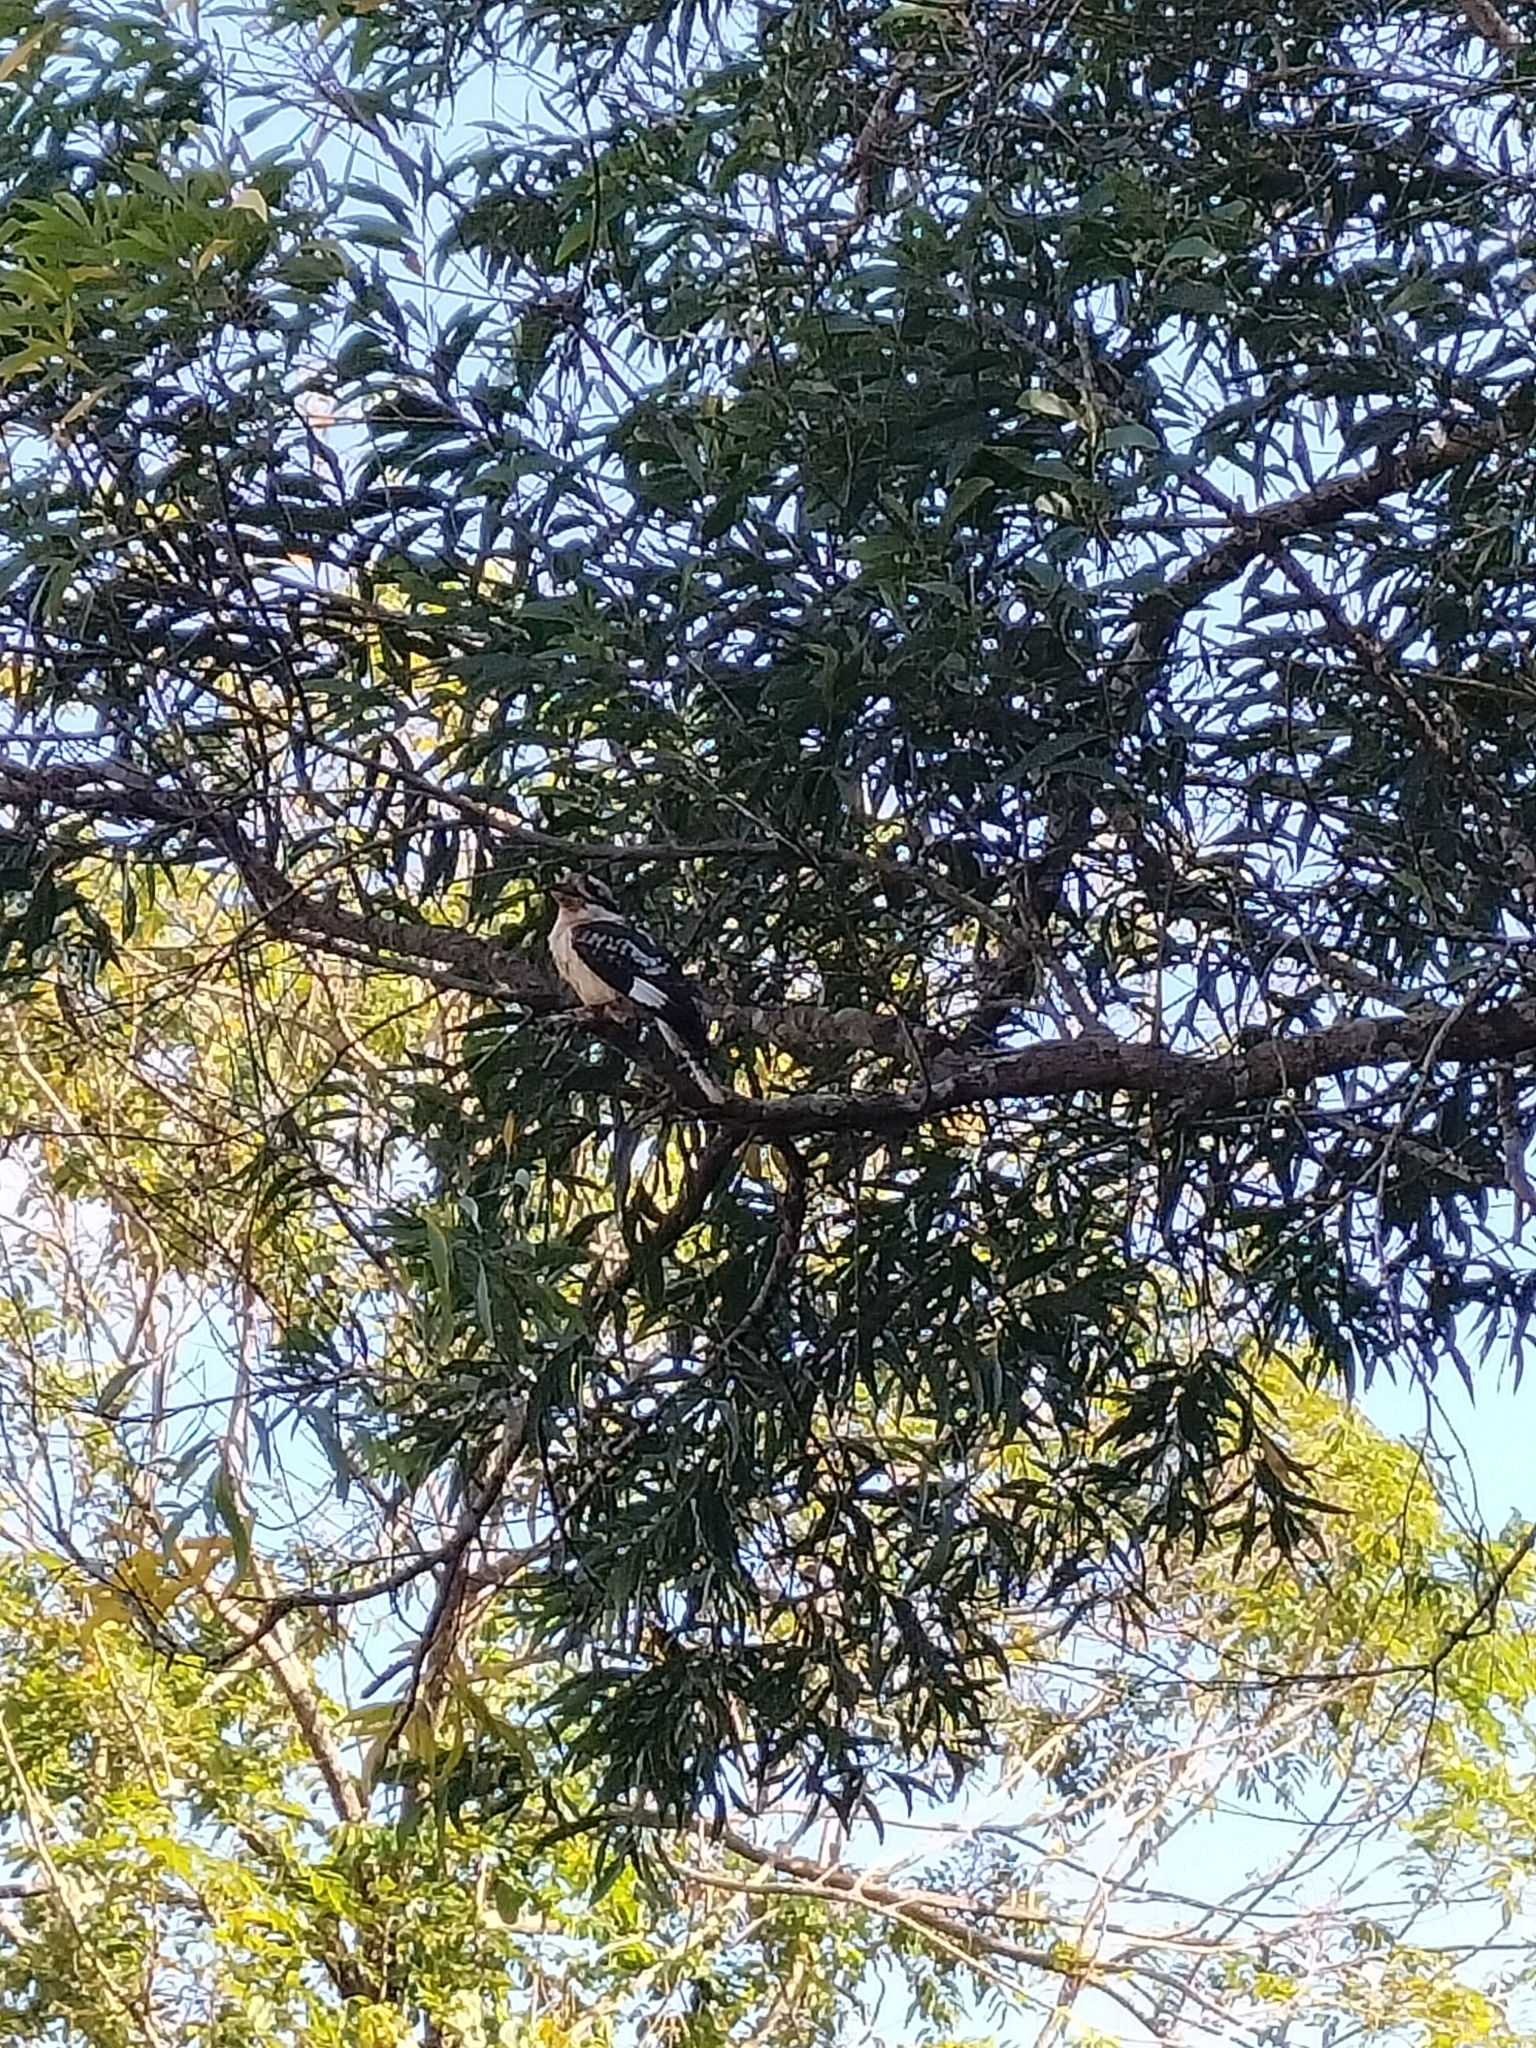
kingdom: Animalia
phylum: Chordata
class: Aves
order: Coraciiformes
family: Alcedinidae
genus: Dacelo
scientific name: Dacelo novaeguineae
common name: Laughing kookaburra
